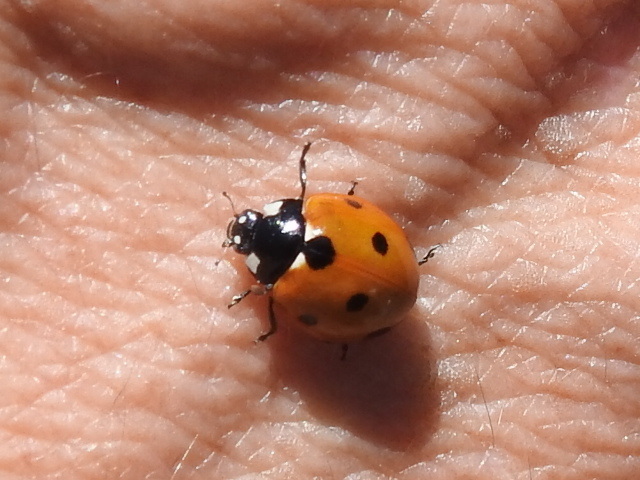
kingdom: Animalia
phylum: Arthropoda
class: Insecta
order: Coleoptera
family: Coccinellidae
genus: Coccinella
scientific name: Coccinella septempunctata
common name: Sevenspotted lady beetle
